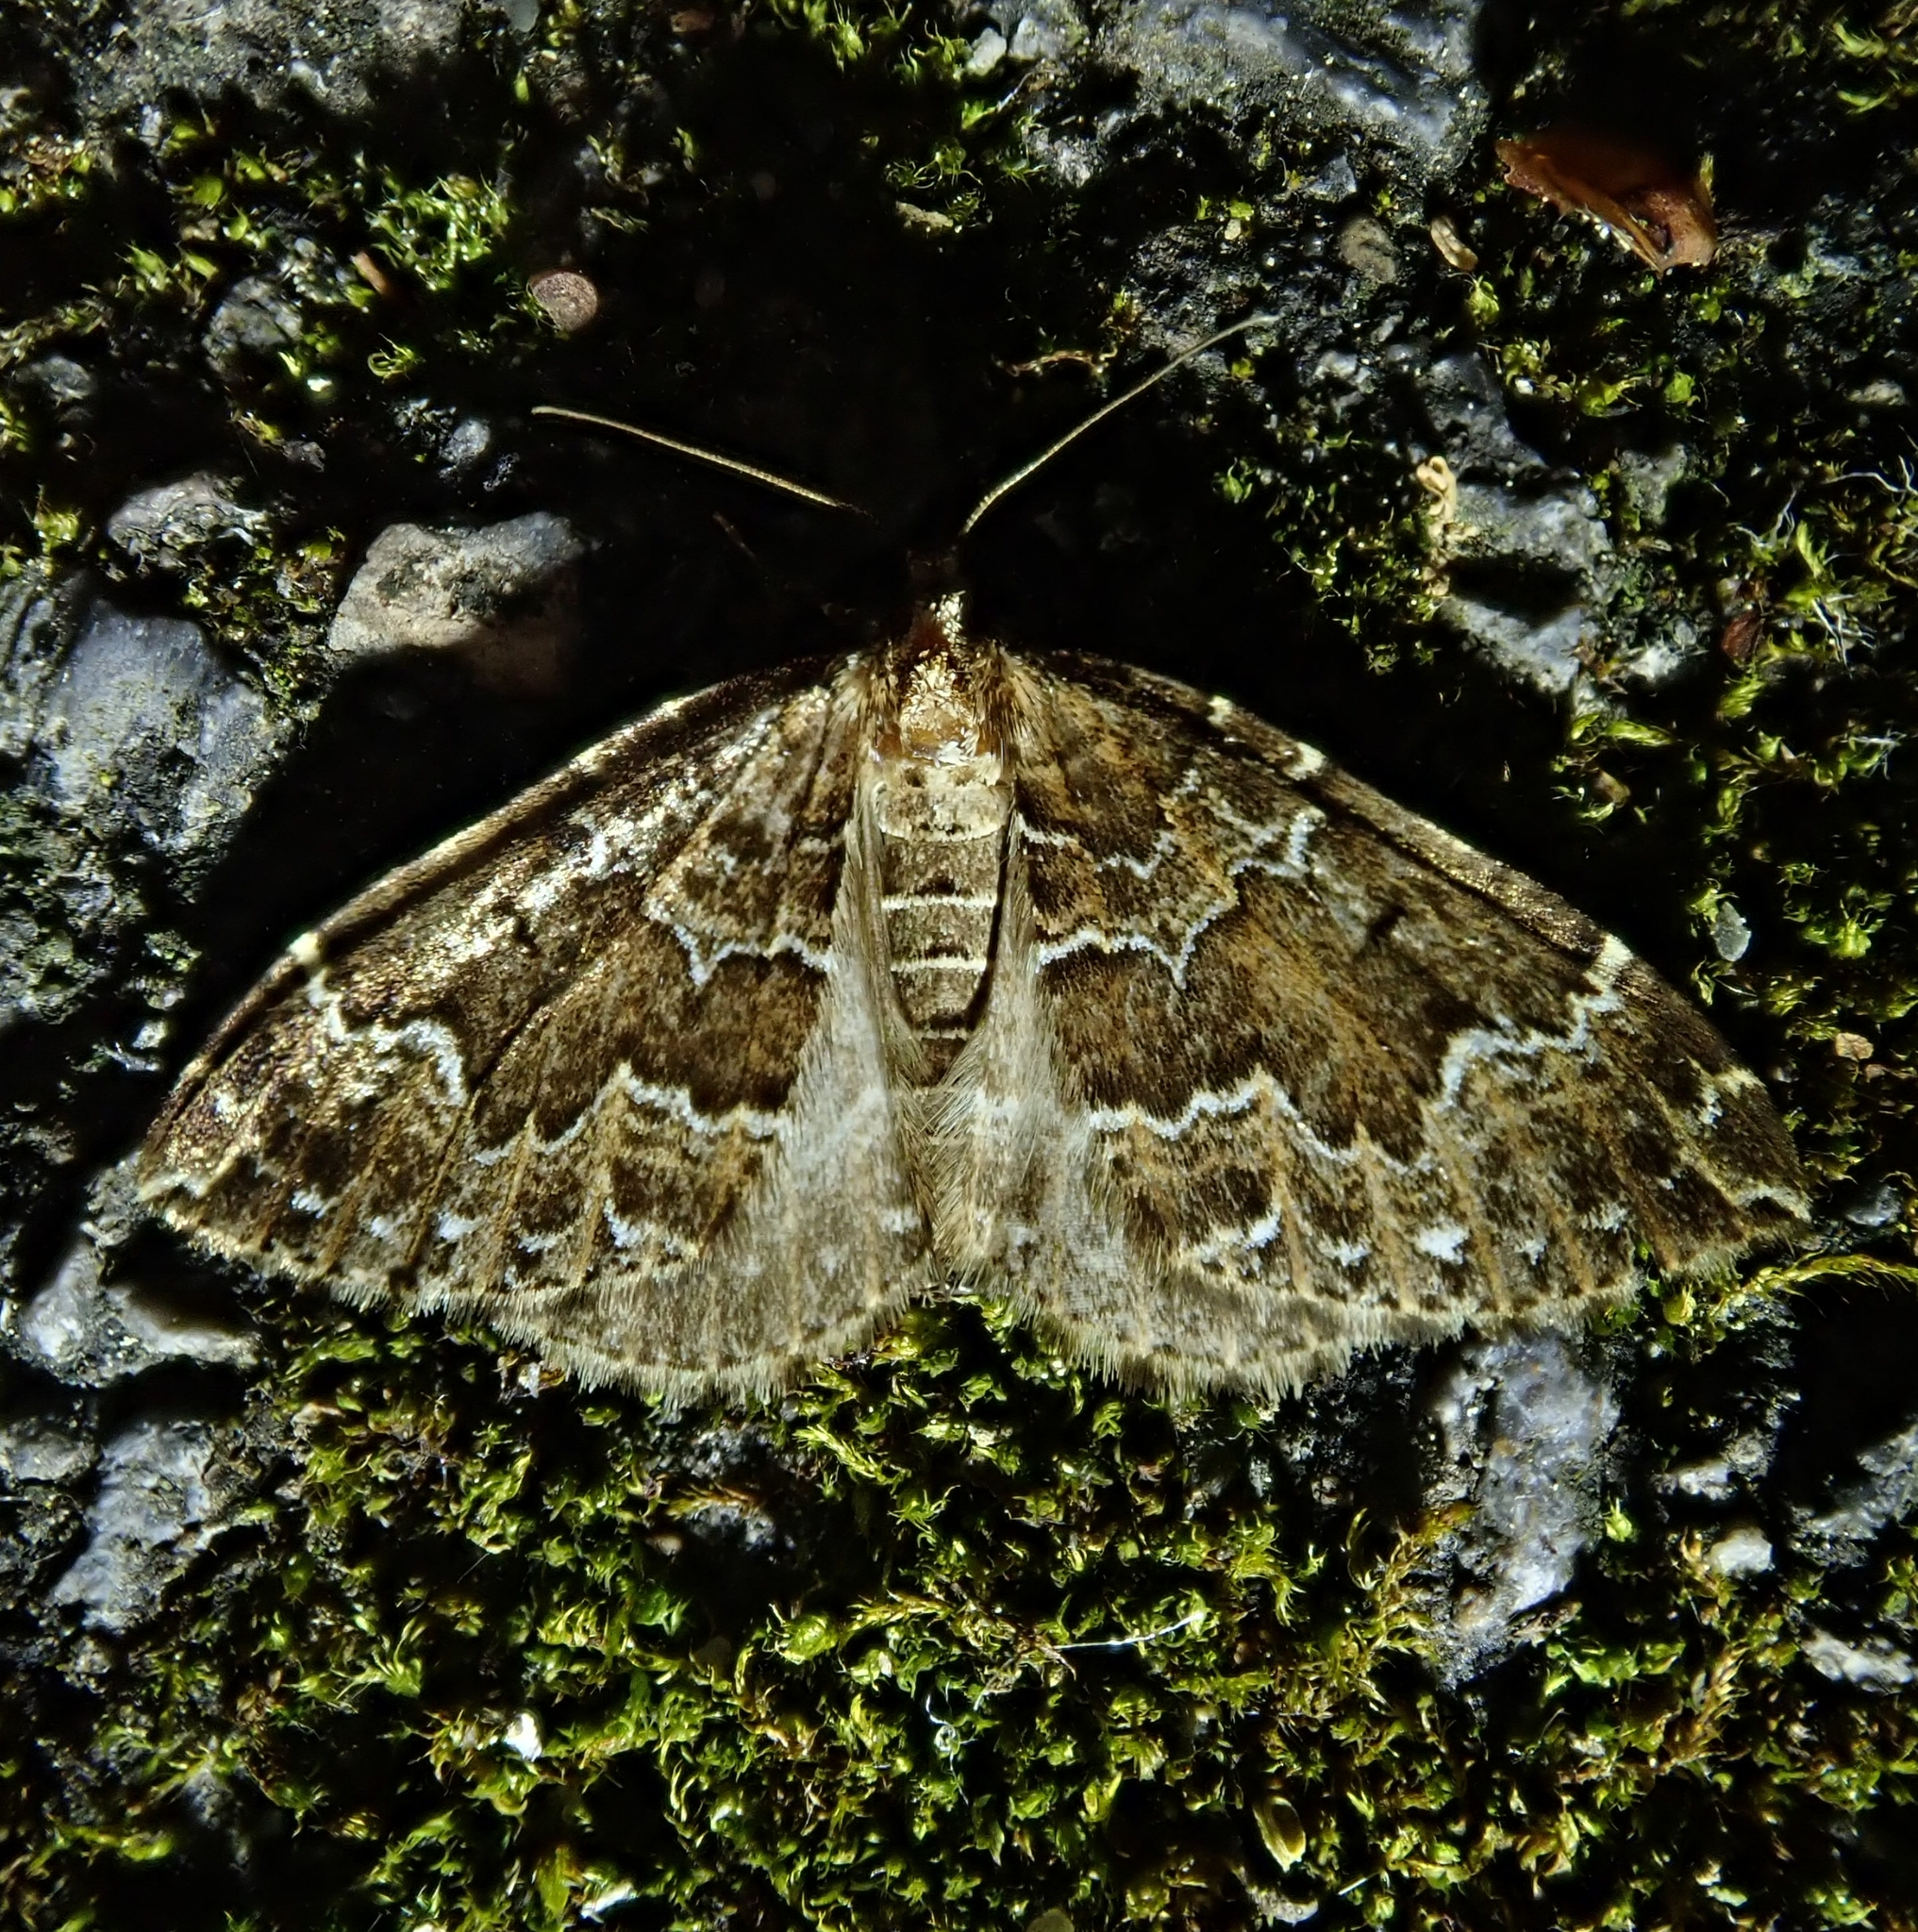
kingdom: Animalia
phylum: Arthropoda
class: Insecta
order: Lepidoptera
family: Geometridae
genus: Lampropteryx
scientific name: Lampropteryx suffumata
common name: Water carpet
